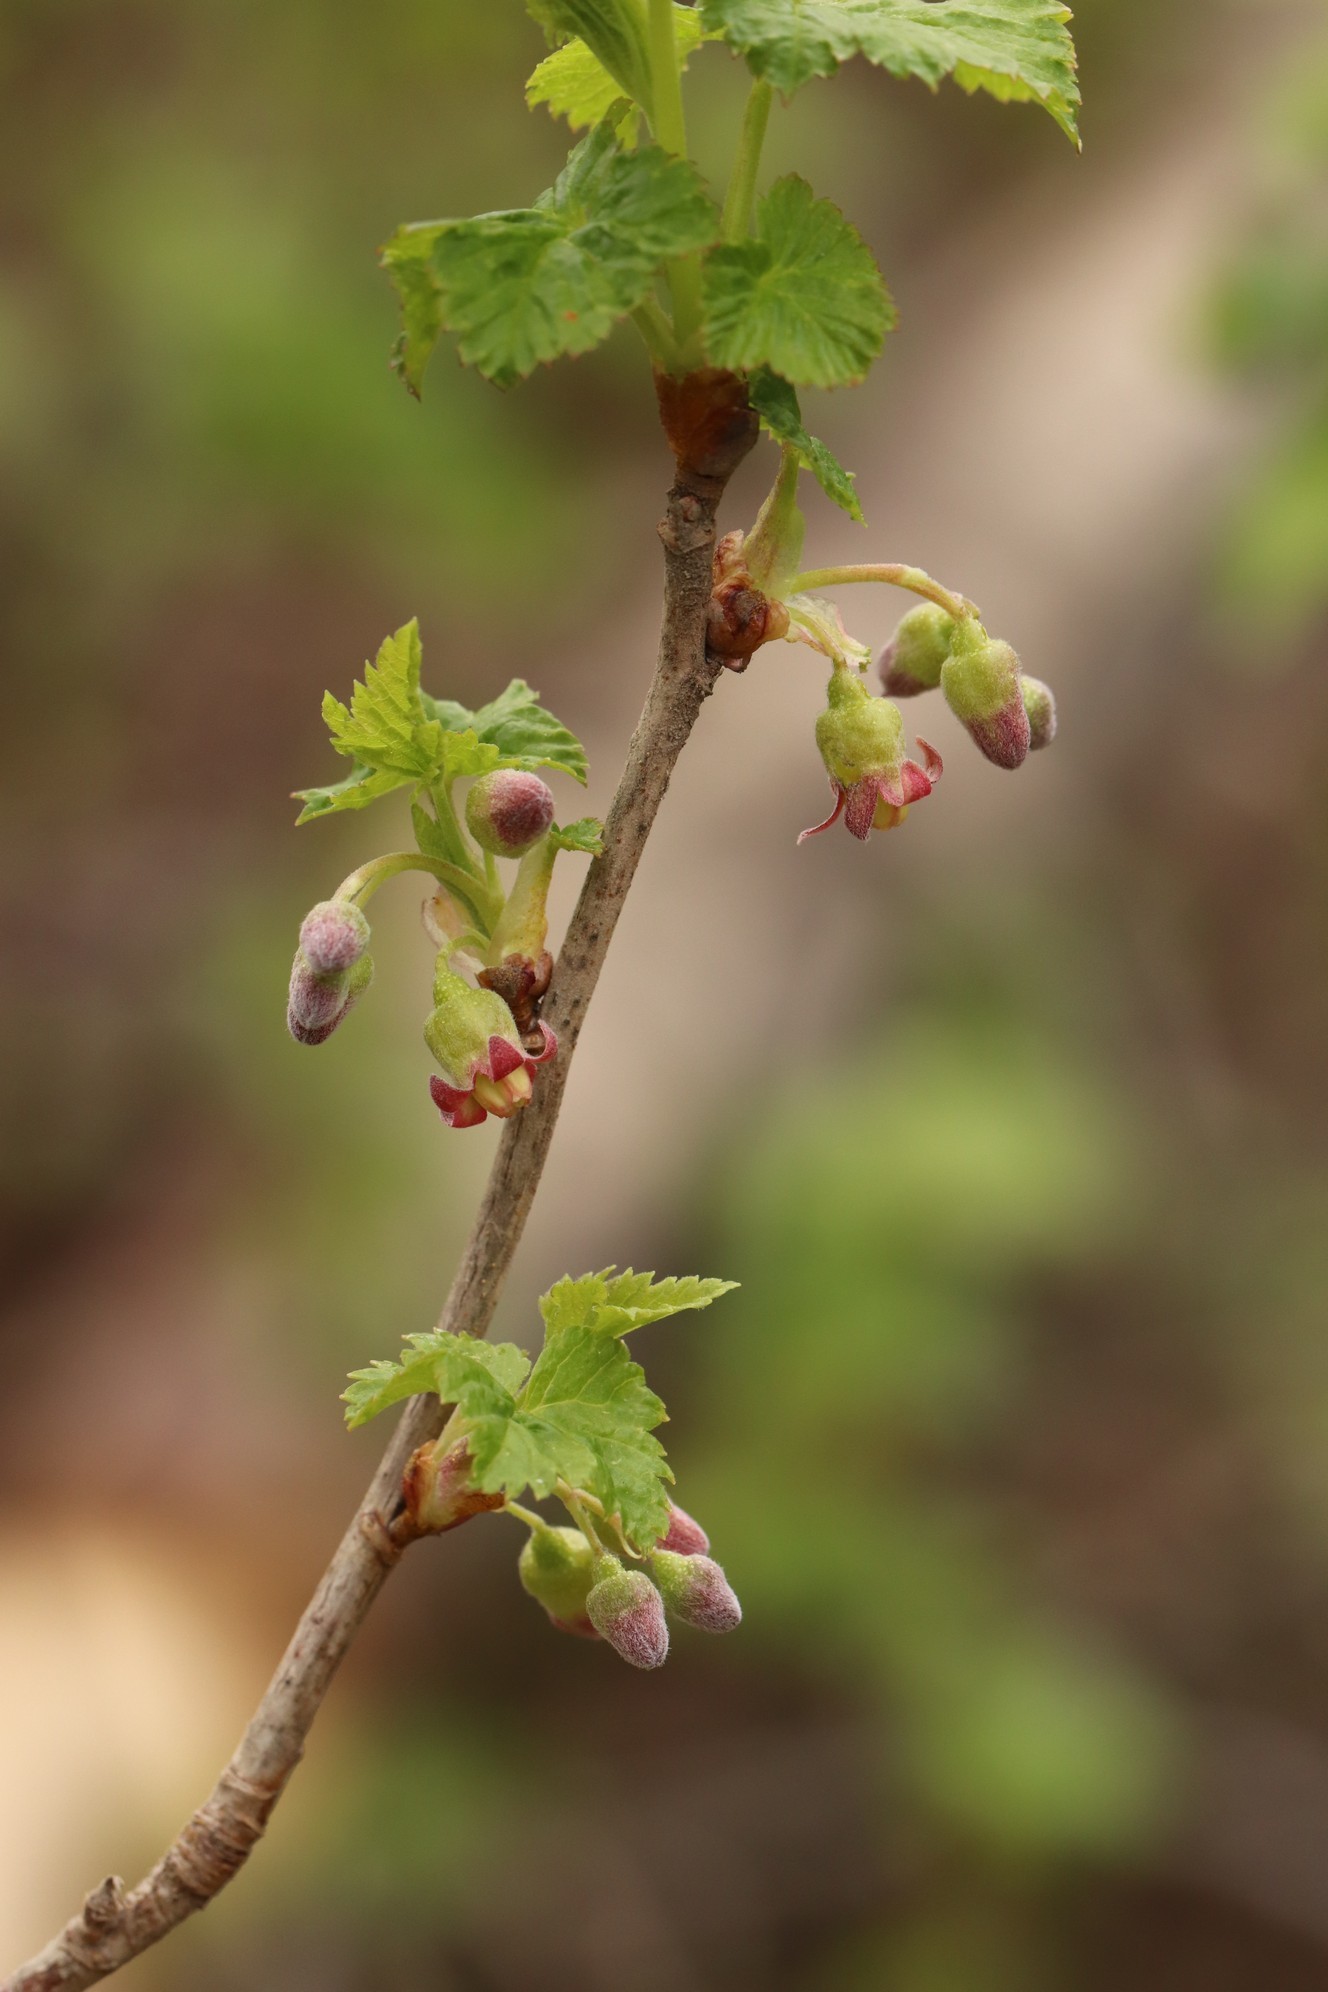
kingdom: Plantae
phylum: Tracheophyta
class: Magnoliopsida
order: Saxifragales
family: Grossulariaceae
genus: Ribes
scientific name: Ribes nigrum
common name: Black currant
